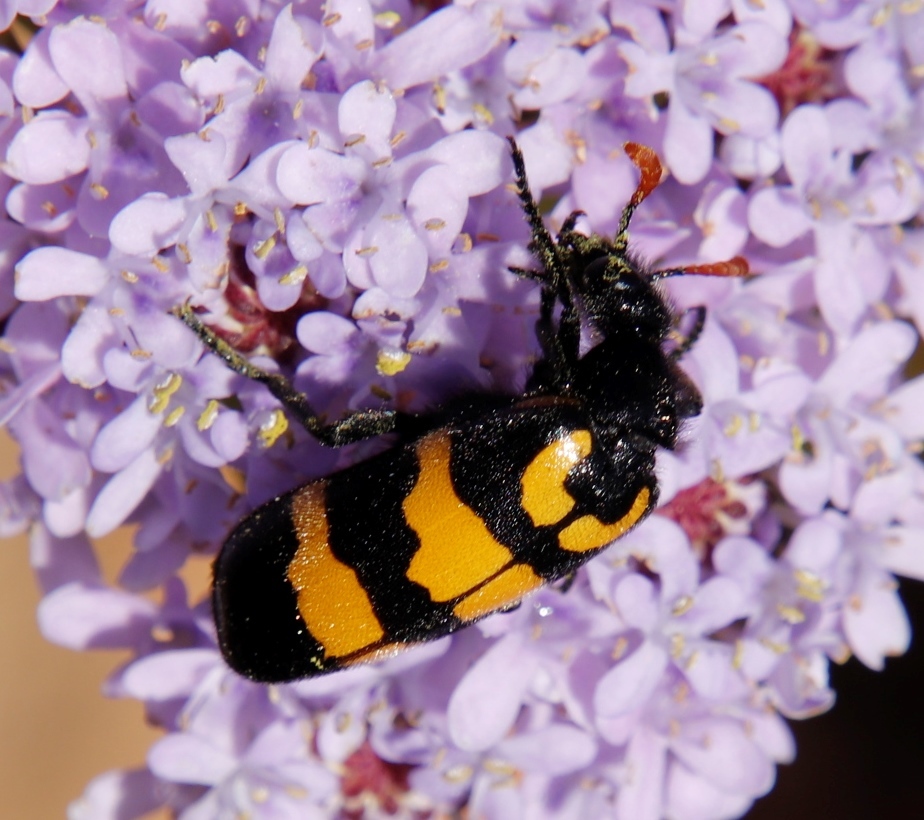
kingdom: Animalia
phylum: Arthropoda
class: Insecta
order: Coleoptera
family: Meloidae
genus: Meloe
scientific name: Meloe lunata
